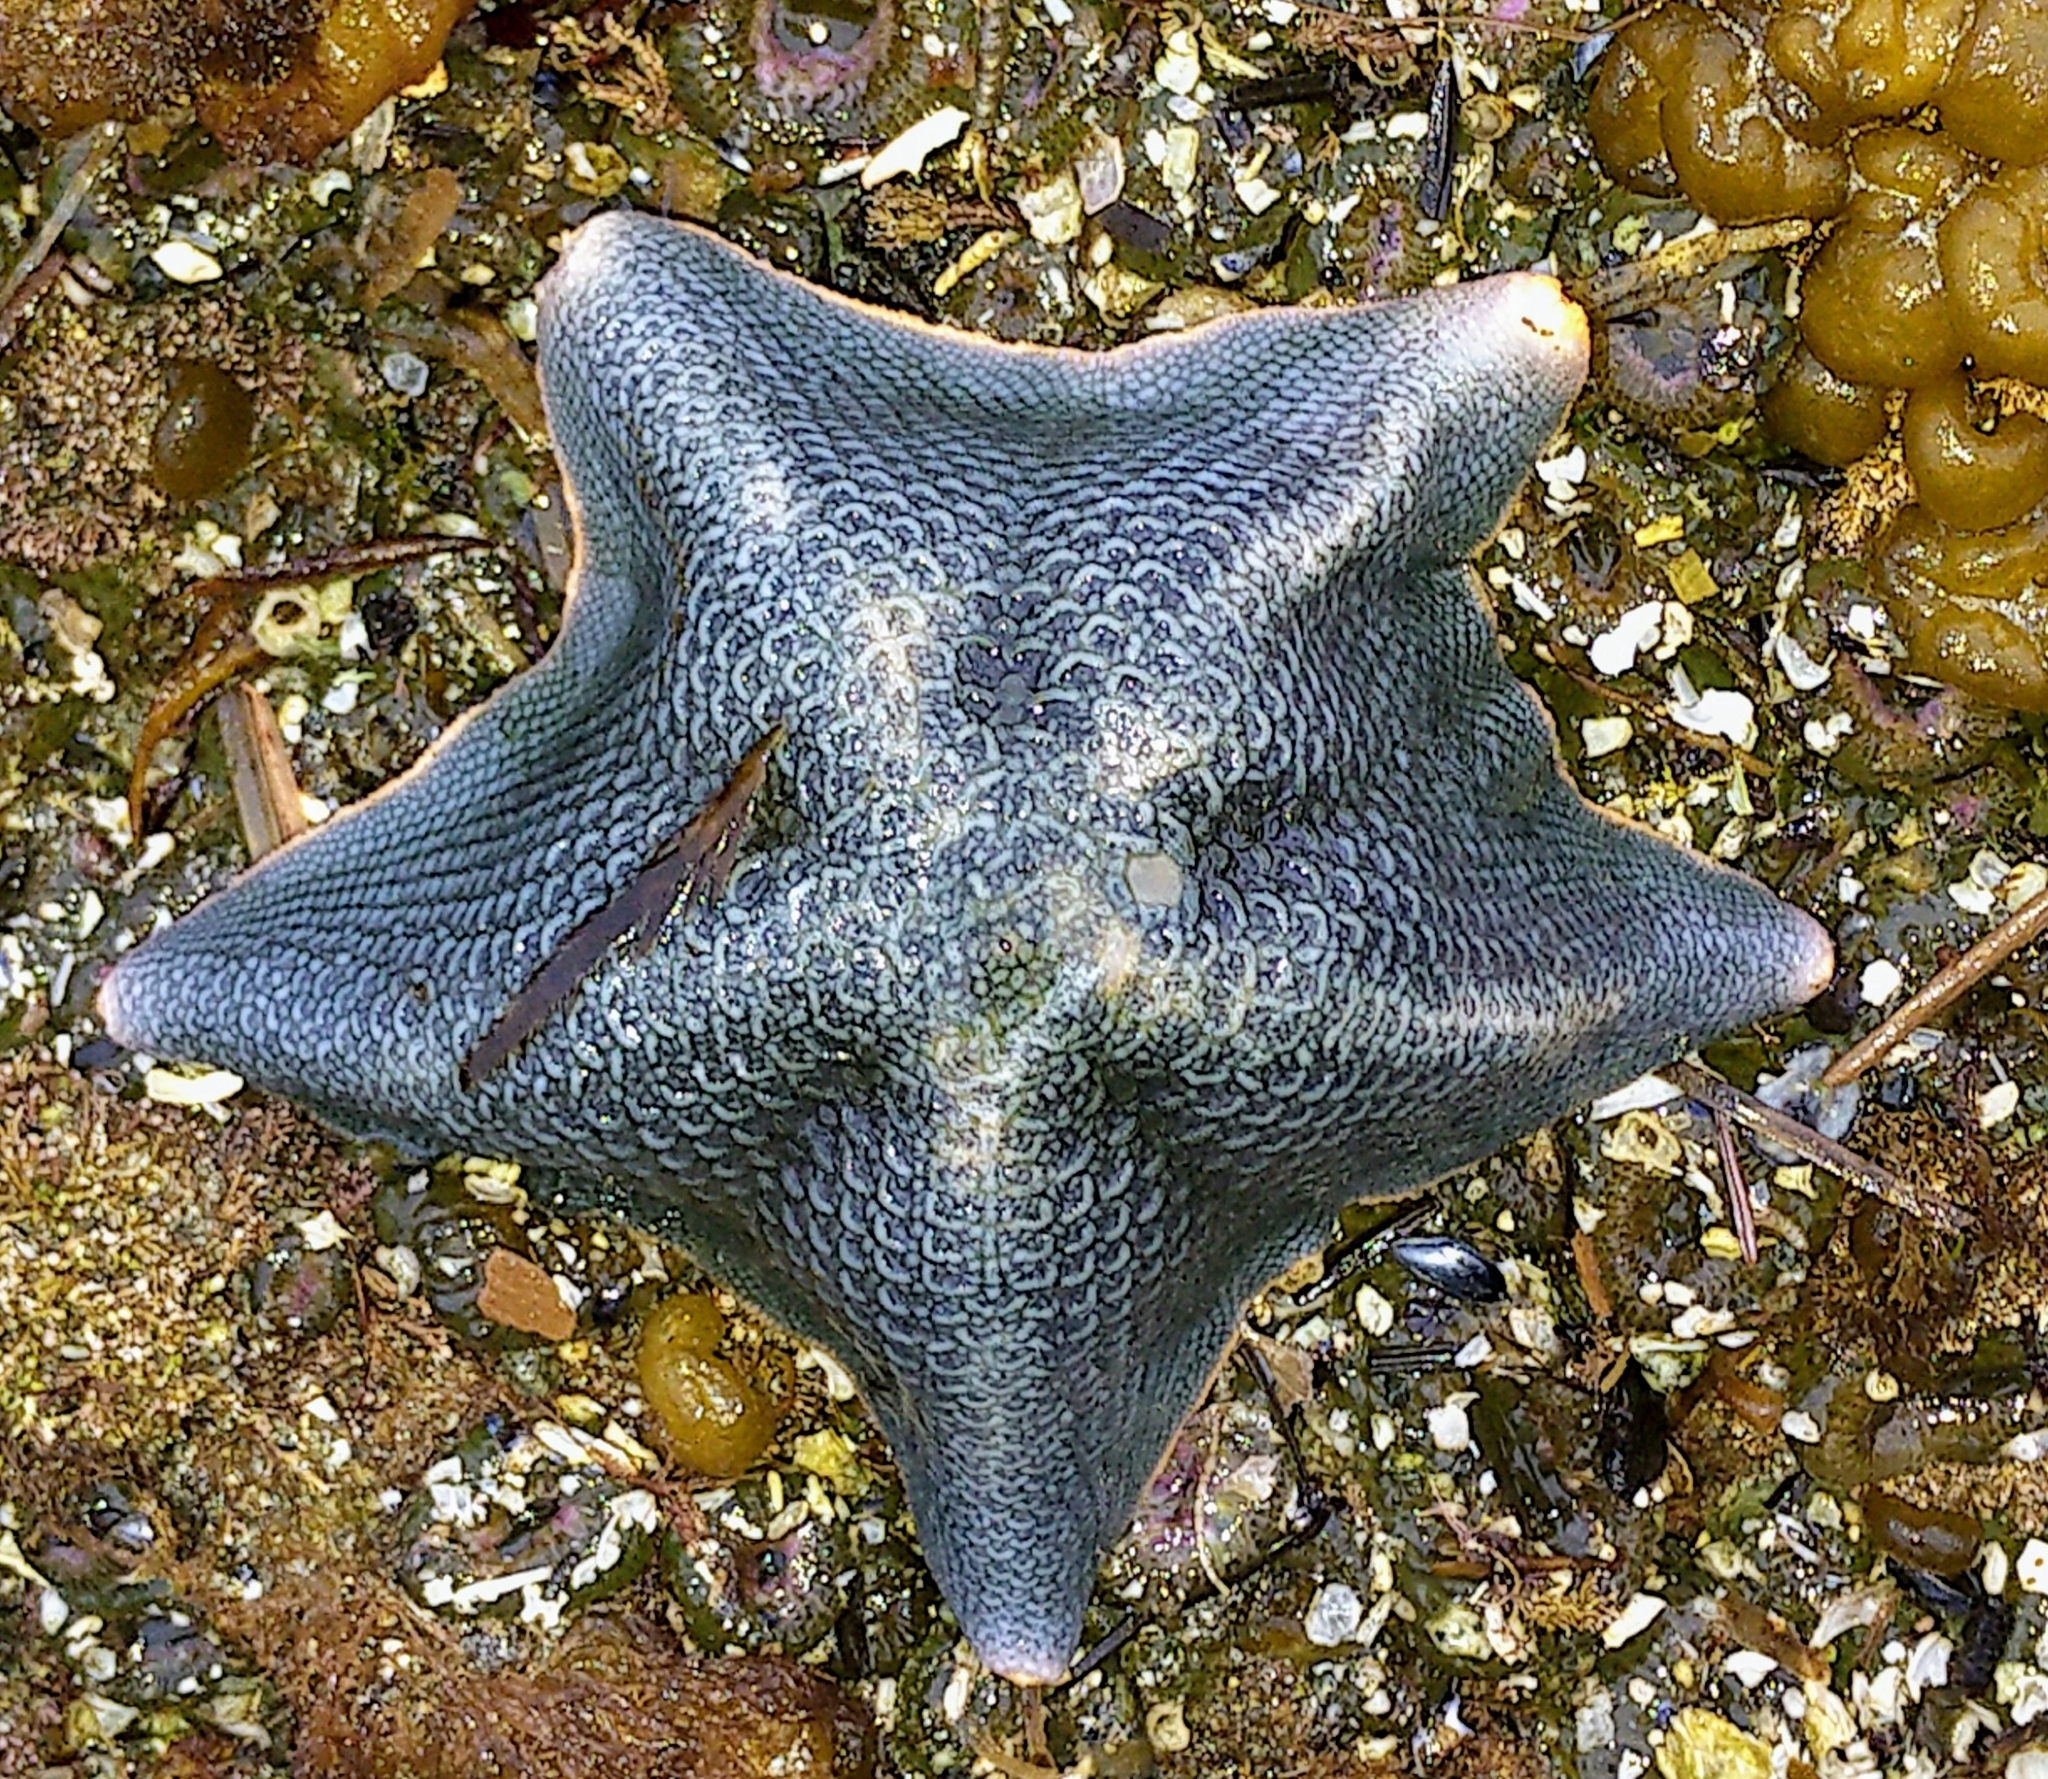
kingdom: Animalia
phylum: Echinodermata
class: Asteroidea
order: Valvatida
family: Asterinidae
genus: Patiria
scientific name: Patiria miniata
